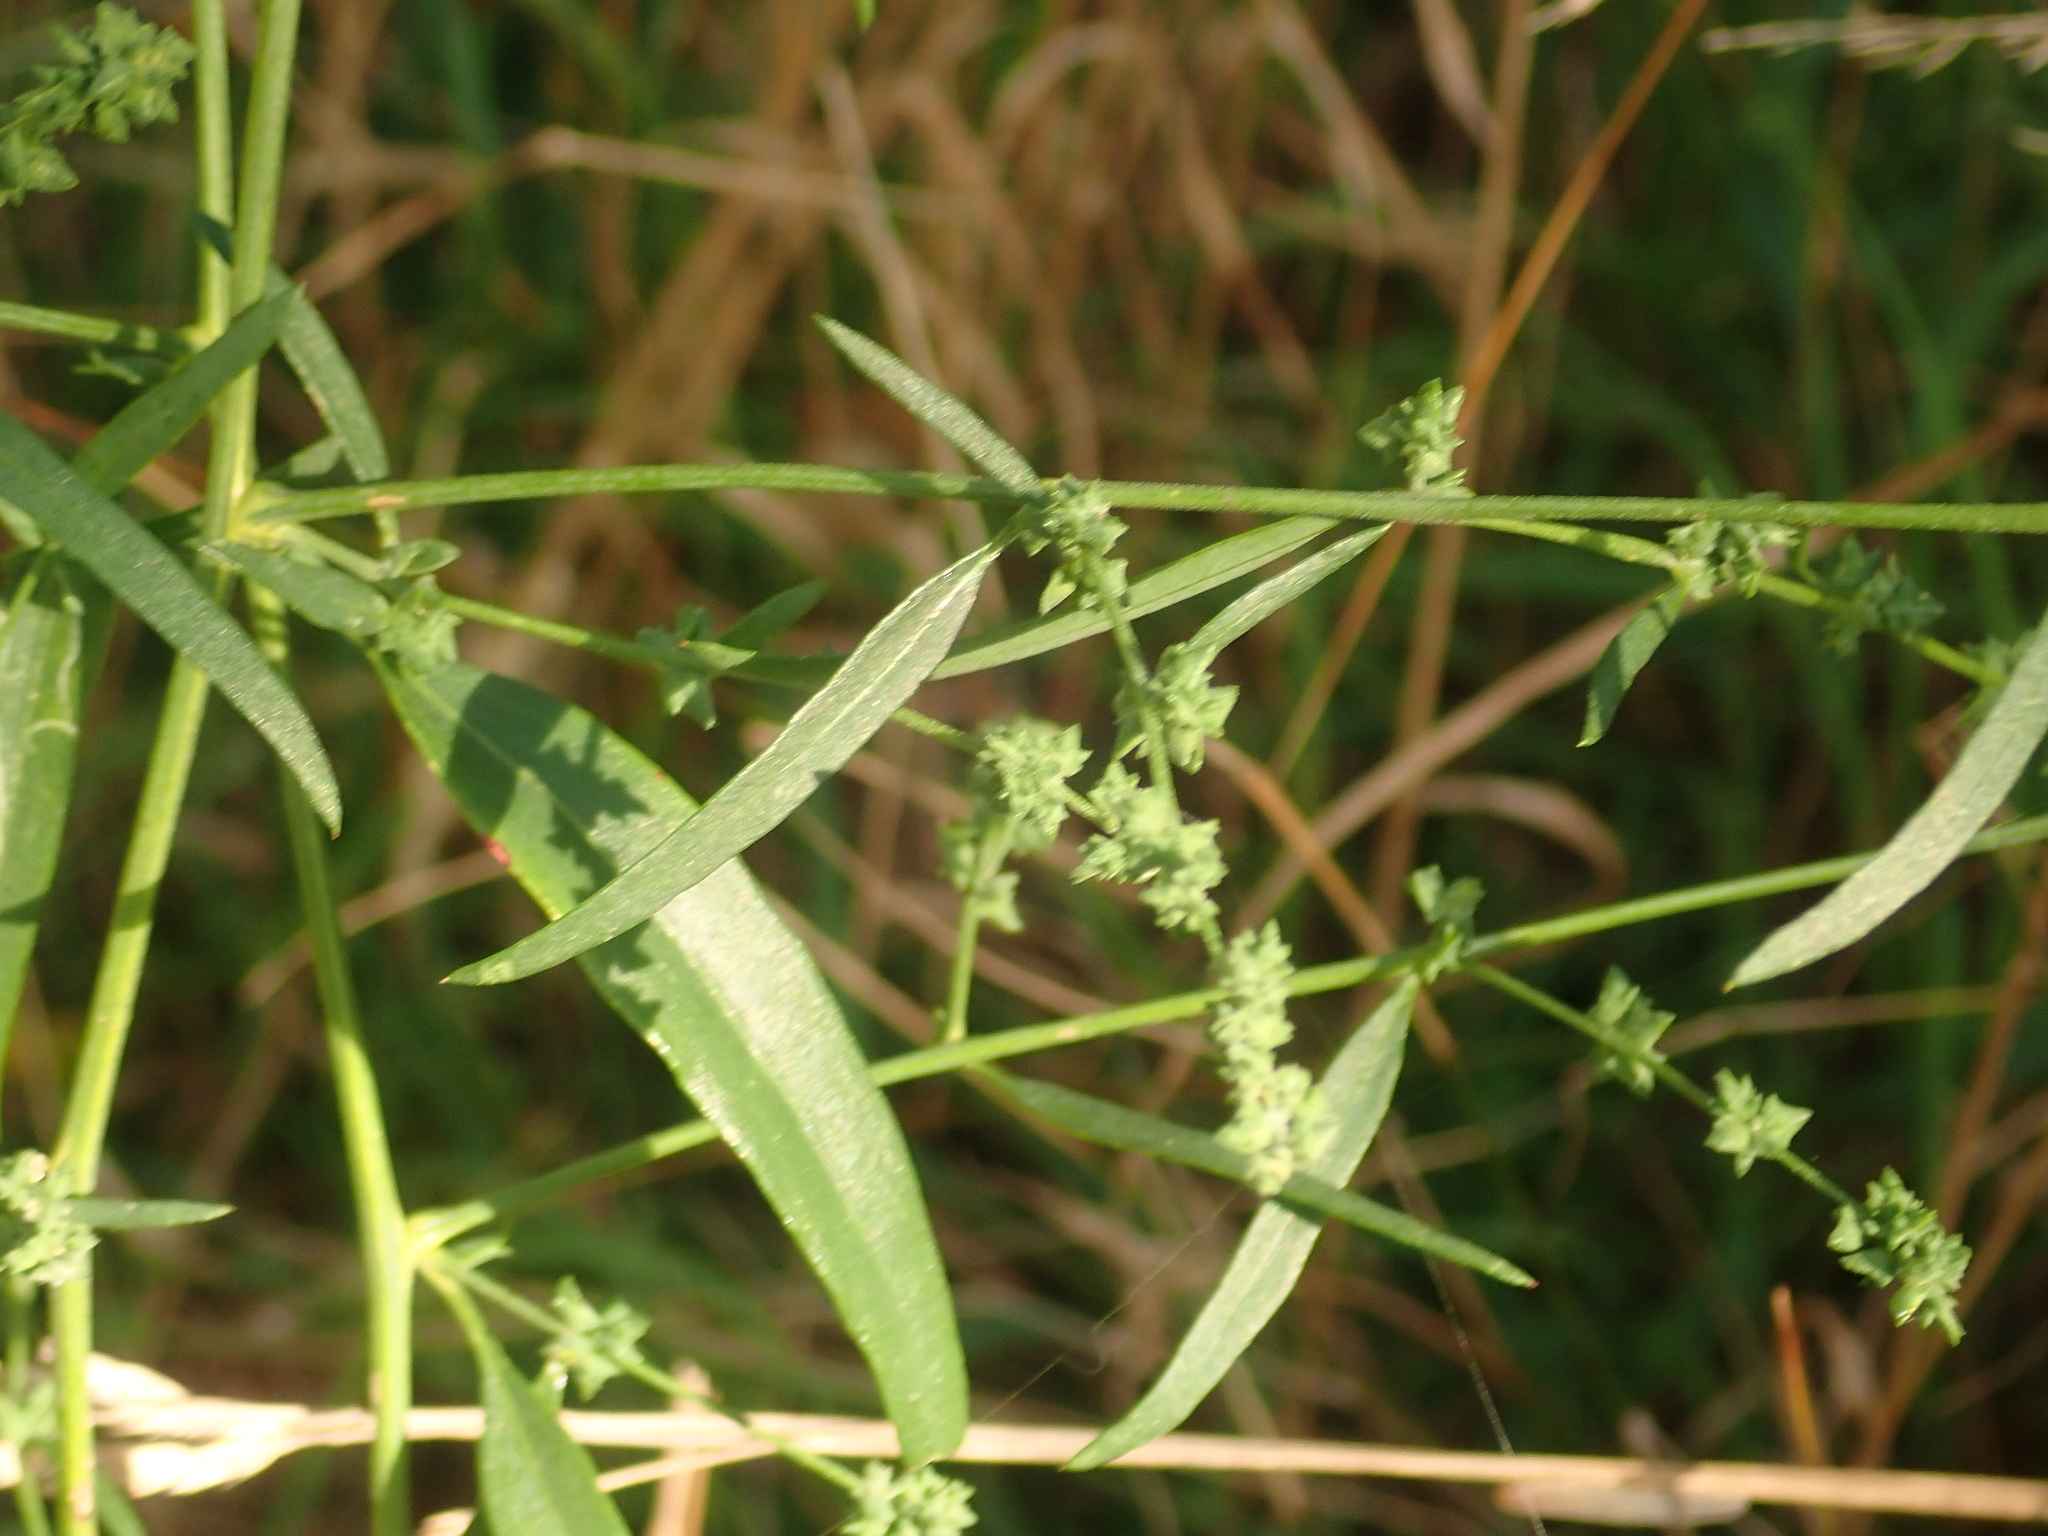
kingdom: Plantae
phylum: Tracheophyta
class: Magnoliopsida
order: Caryophyllales
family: Amaranthaceae
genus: Atriplex
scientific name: Atriplex patula
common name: Common orache
